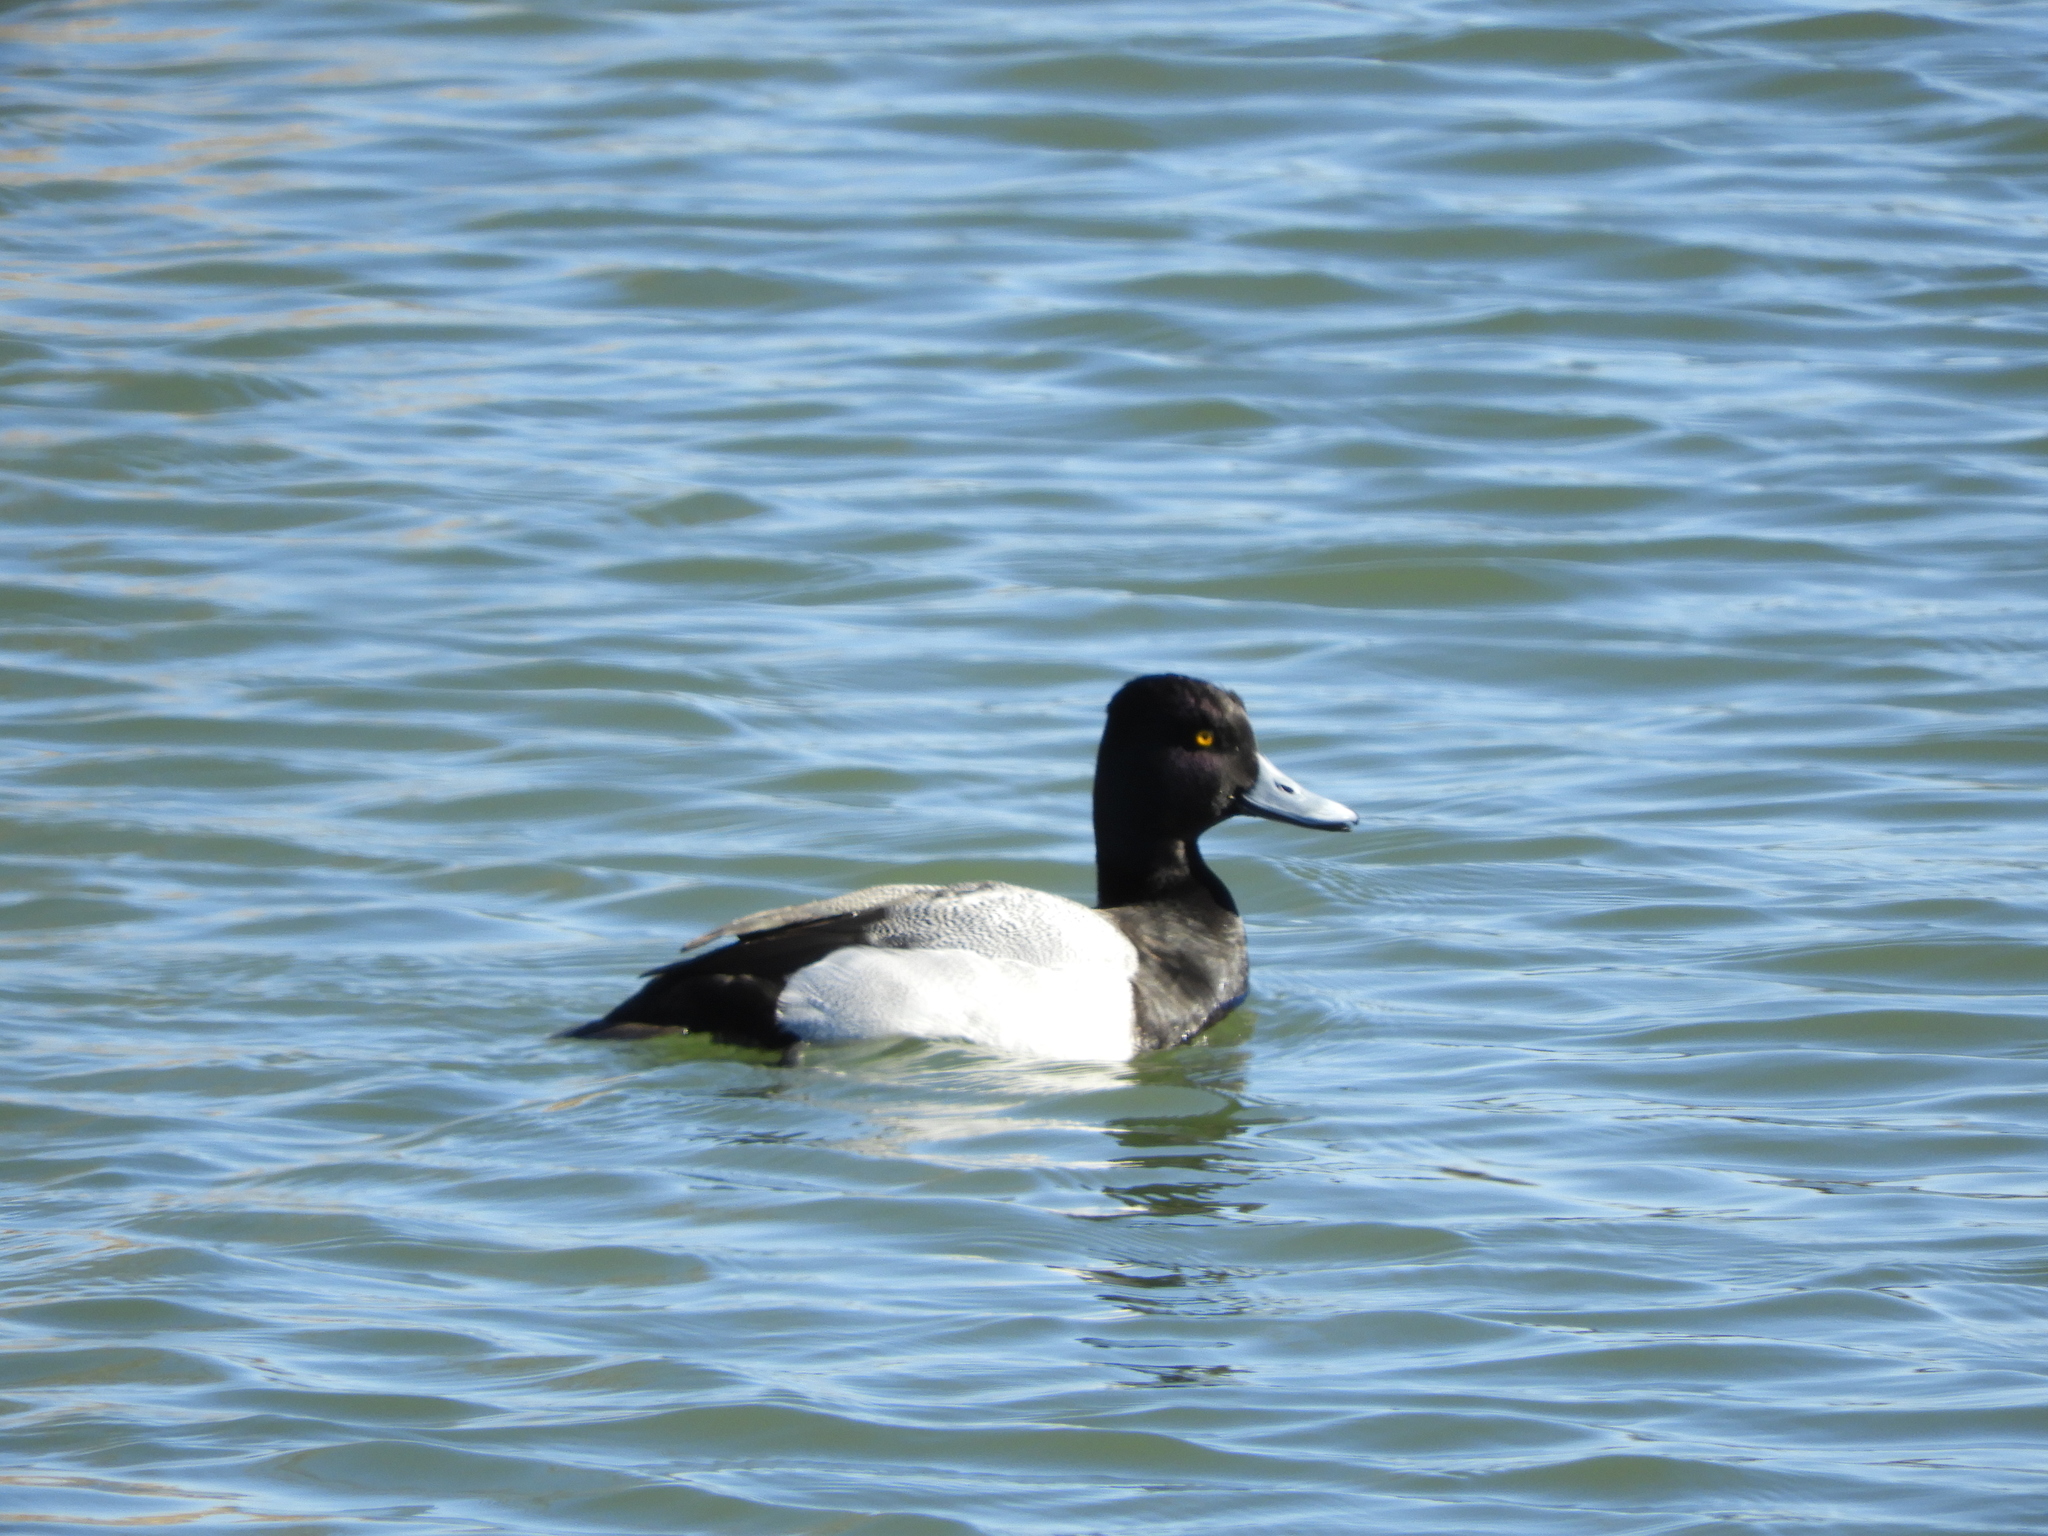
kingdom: Animalia
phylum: Chordata
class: Aves
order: Anseriformes
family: Anatidae
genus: Aythya
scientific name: Aythya affinis
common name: Lesser scaup
